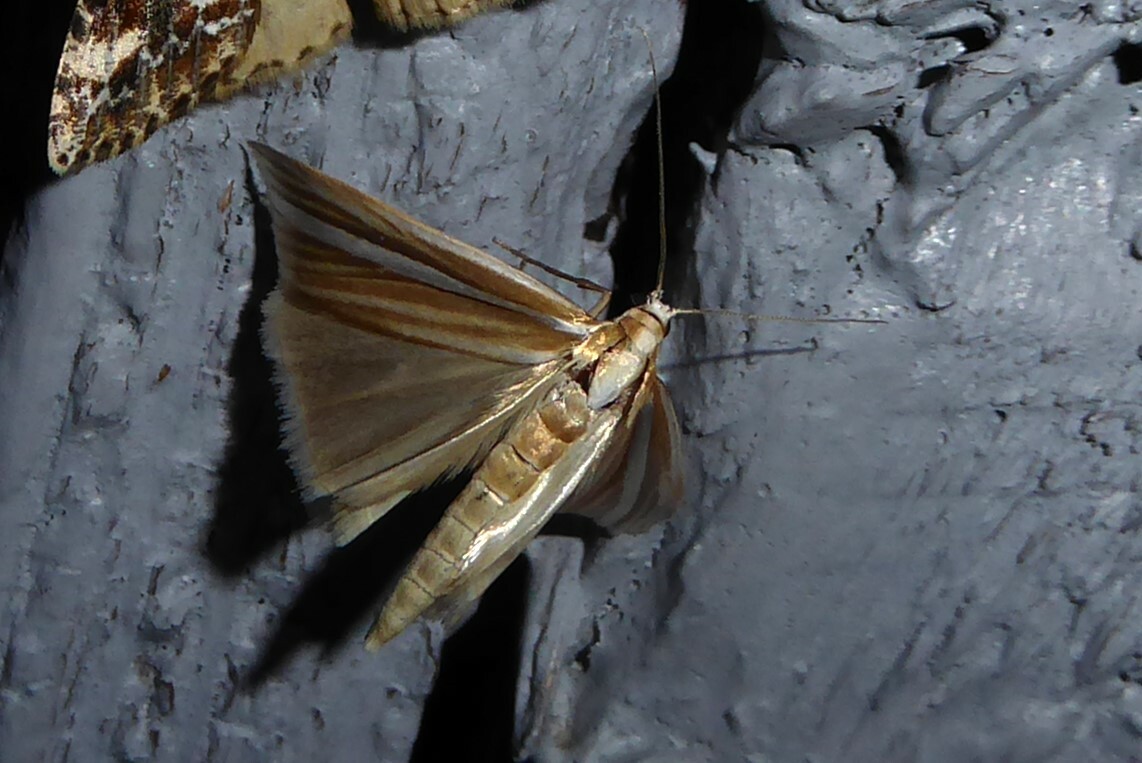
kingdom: Animalia
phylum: Arthropoda
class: Insecta
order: Lepidoptera
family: Crambidae
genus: Orocrambus
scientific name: Orocrambus lewisi
